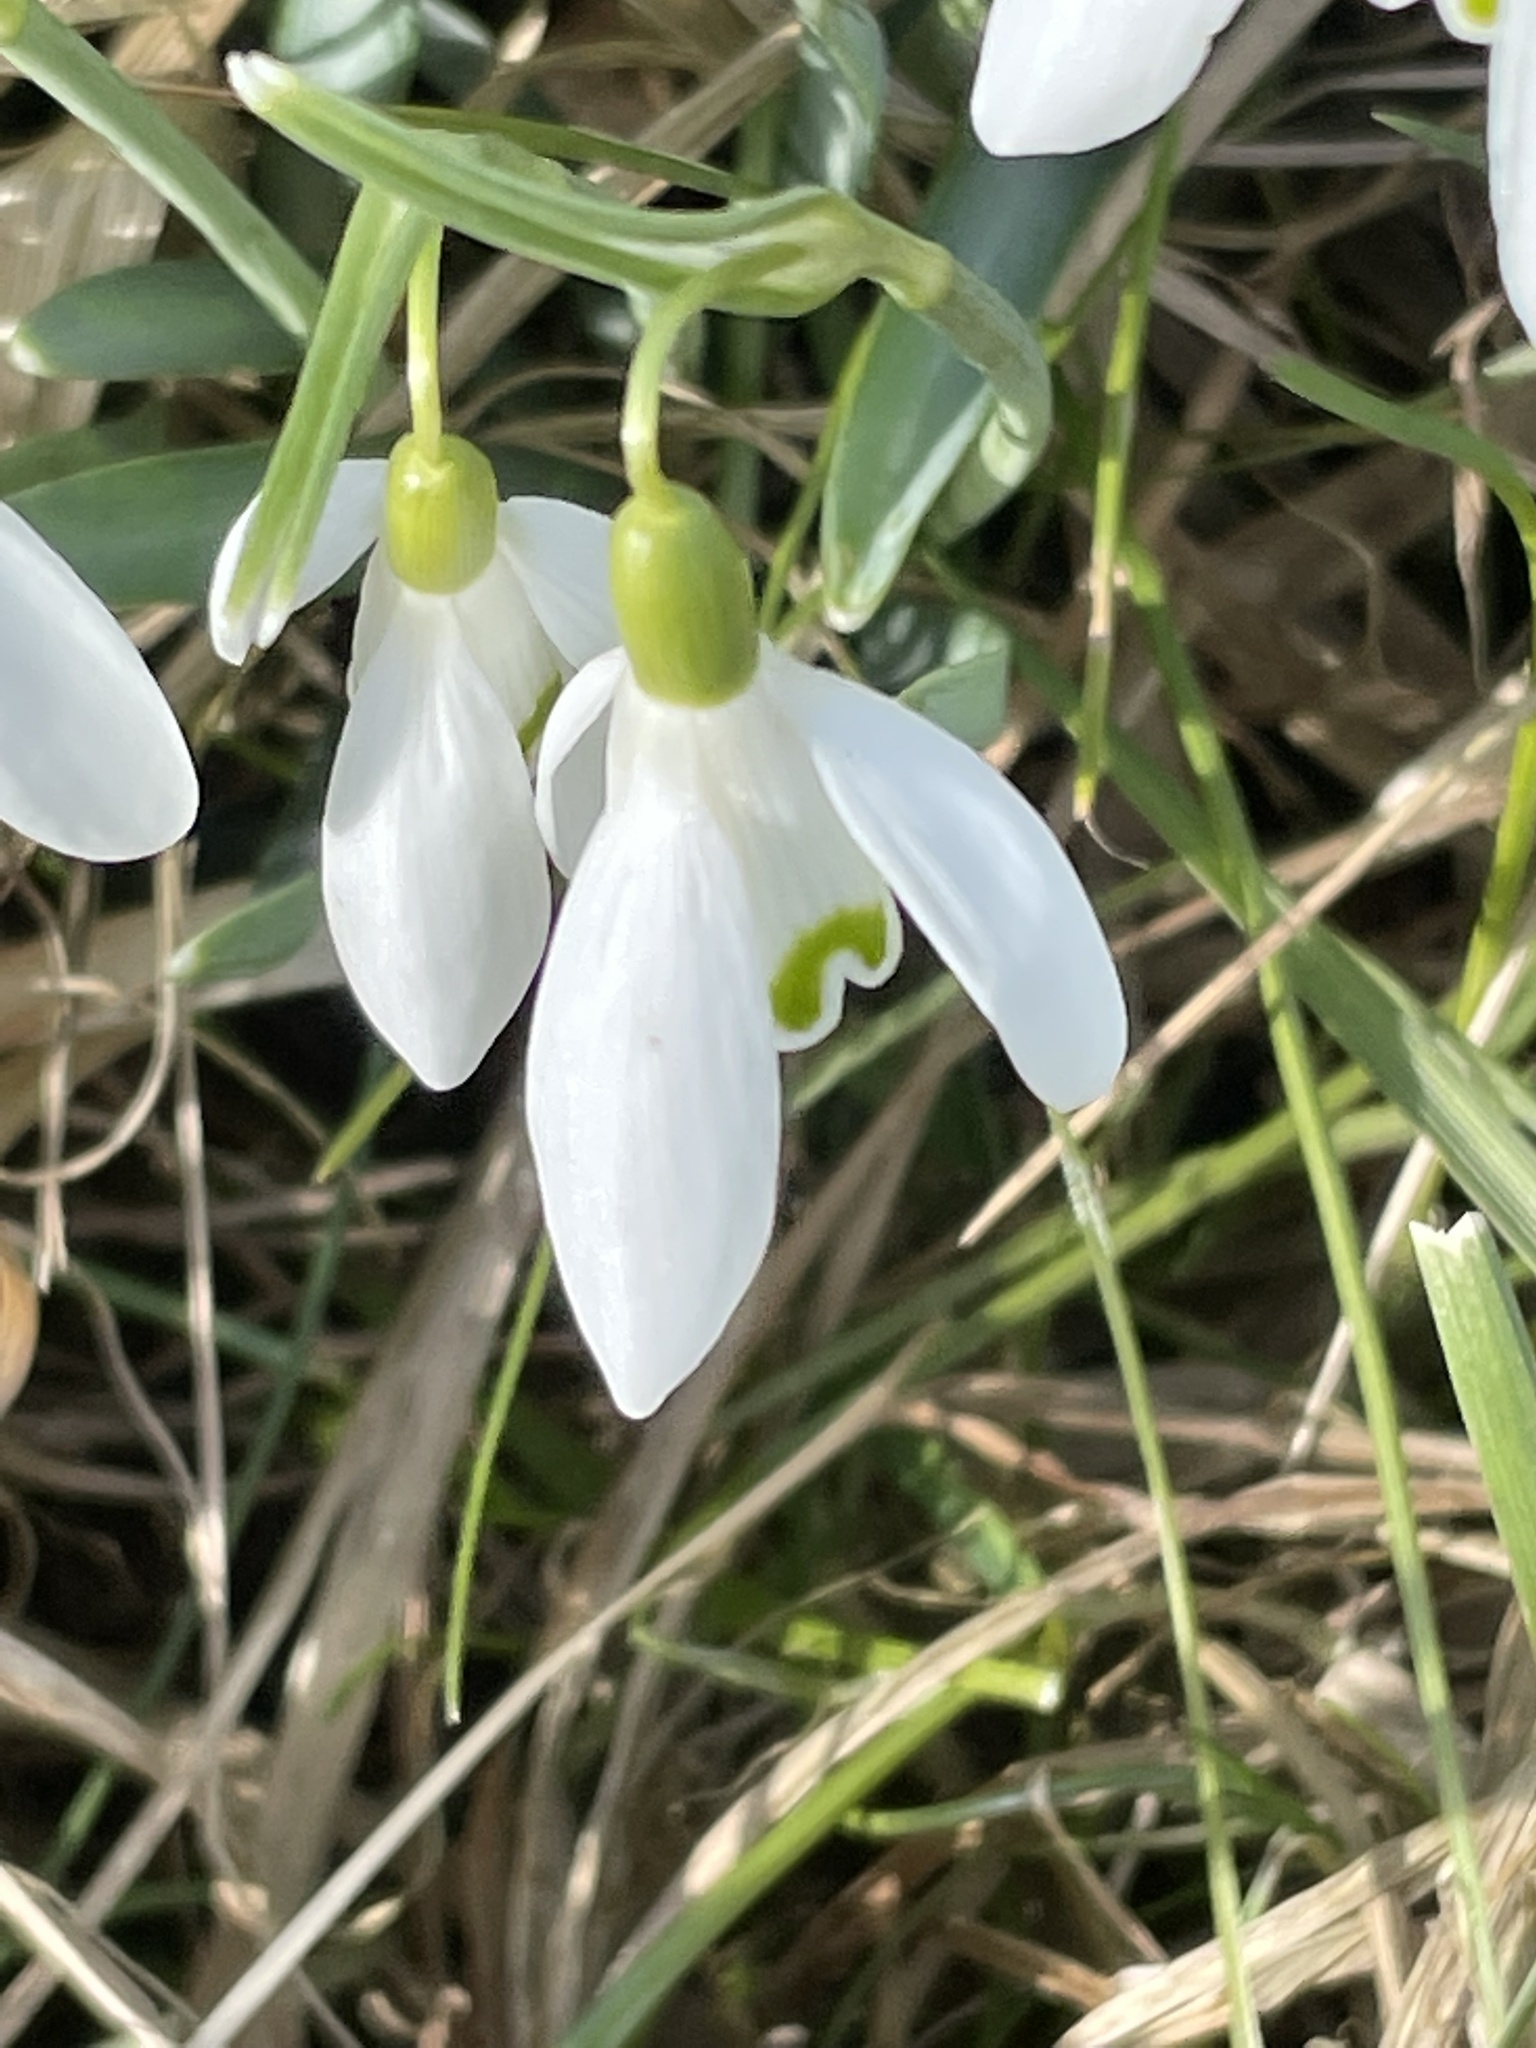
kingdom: Plantae
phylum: Tracheophyta
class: Liliopsida
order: Asparagales
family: Amaryllidaceae
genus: Galanthus
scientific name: Galanthus nivalis
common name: Snowdrop
